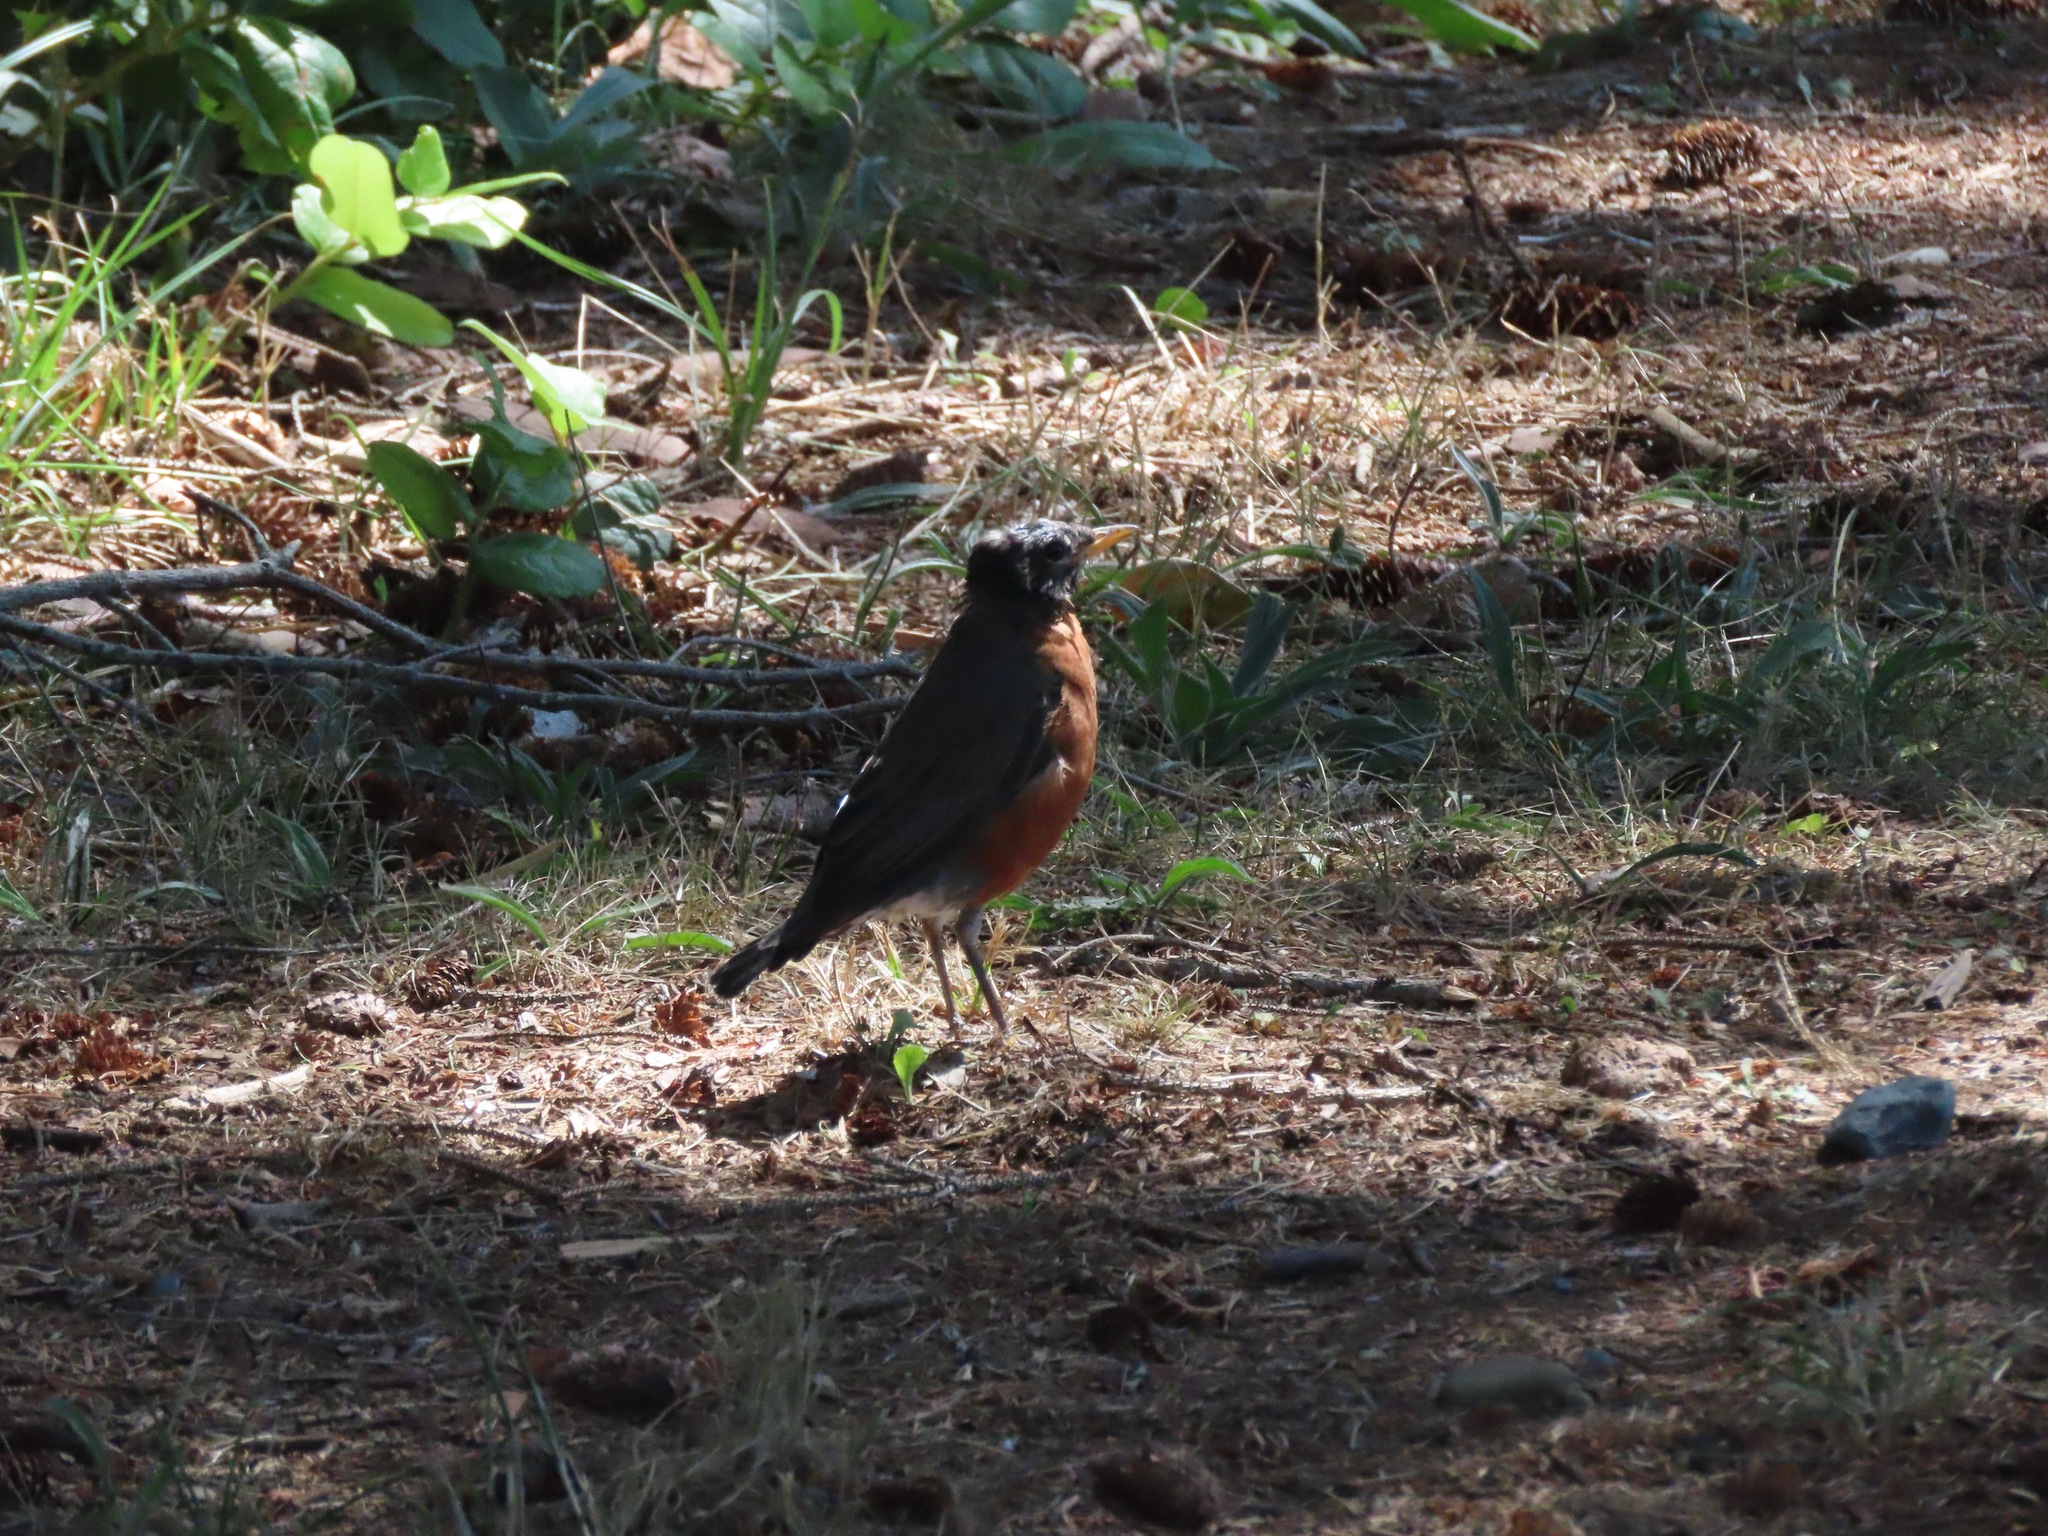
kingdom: Animalia
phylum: Chordata
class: Aves
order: Passeriformes
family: Turdidae
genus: Turdus
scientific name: Turdus migratorius
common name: American robin
